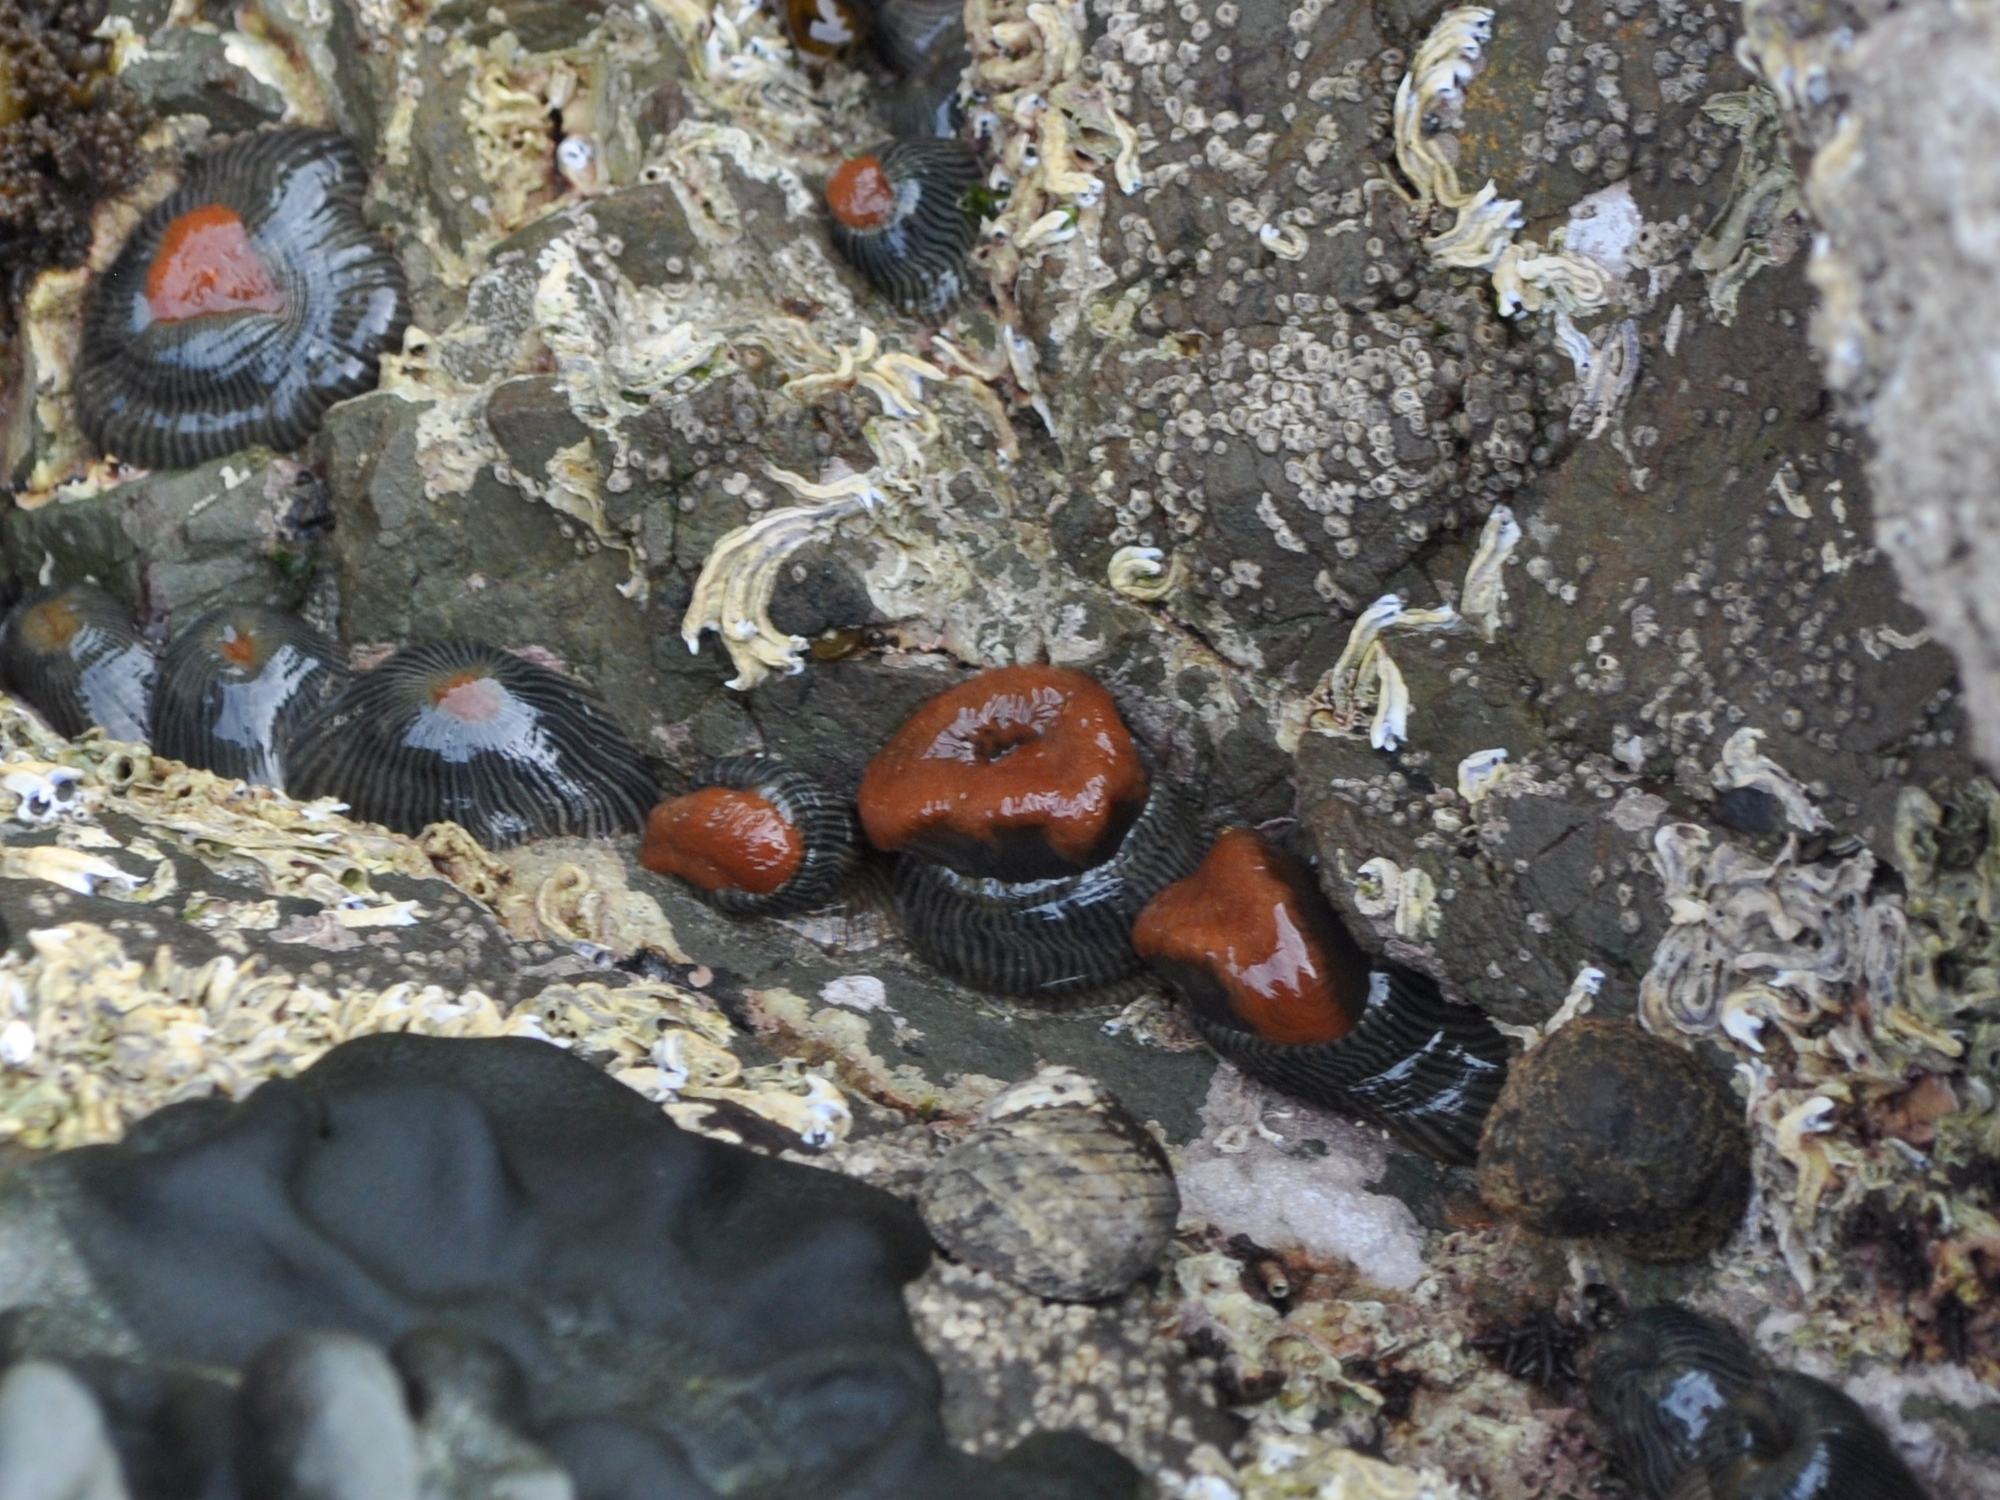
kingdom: Animalia
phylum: Cnidaria
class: Anthozoa
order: Actiniaria
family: Diadumenidae
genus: Diadumene
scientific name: Diadumene neozelanica
